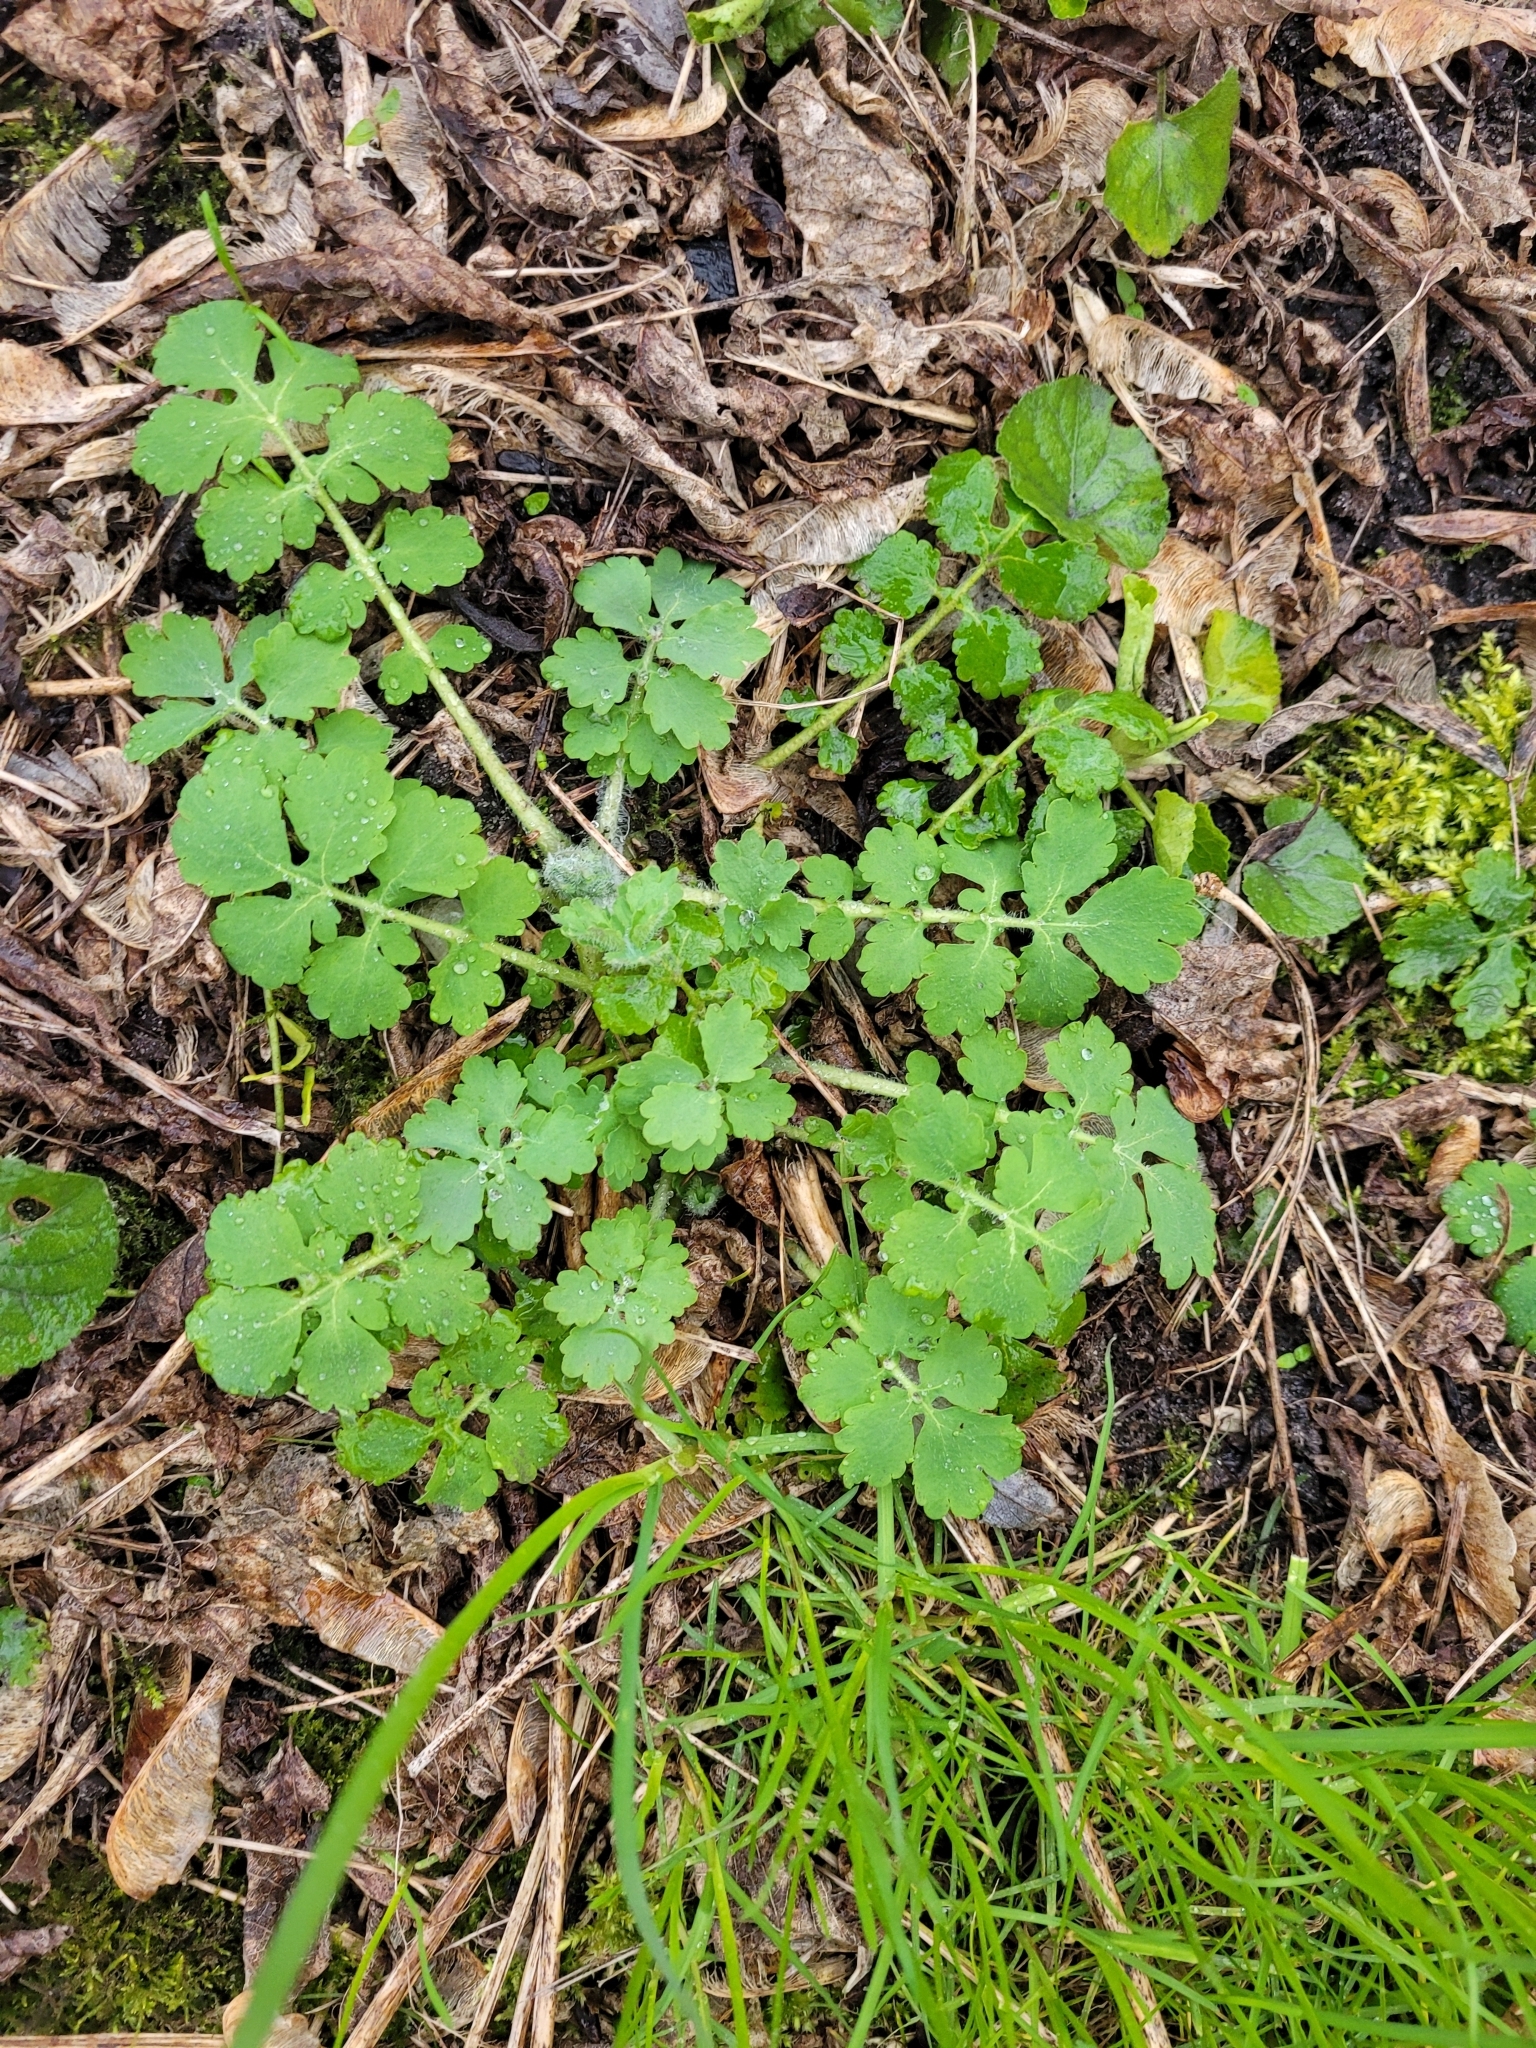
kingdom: Plantae
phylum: Tracheophyta
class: Magnoliopsida
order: Ranunculales
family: Papaveraceae
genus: Chelidonium
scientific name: Chelidonium majus
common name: Greater celandine
